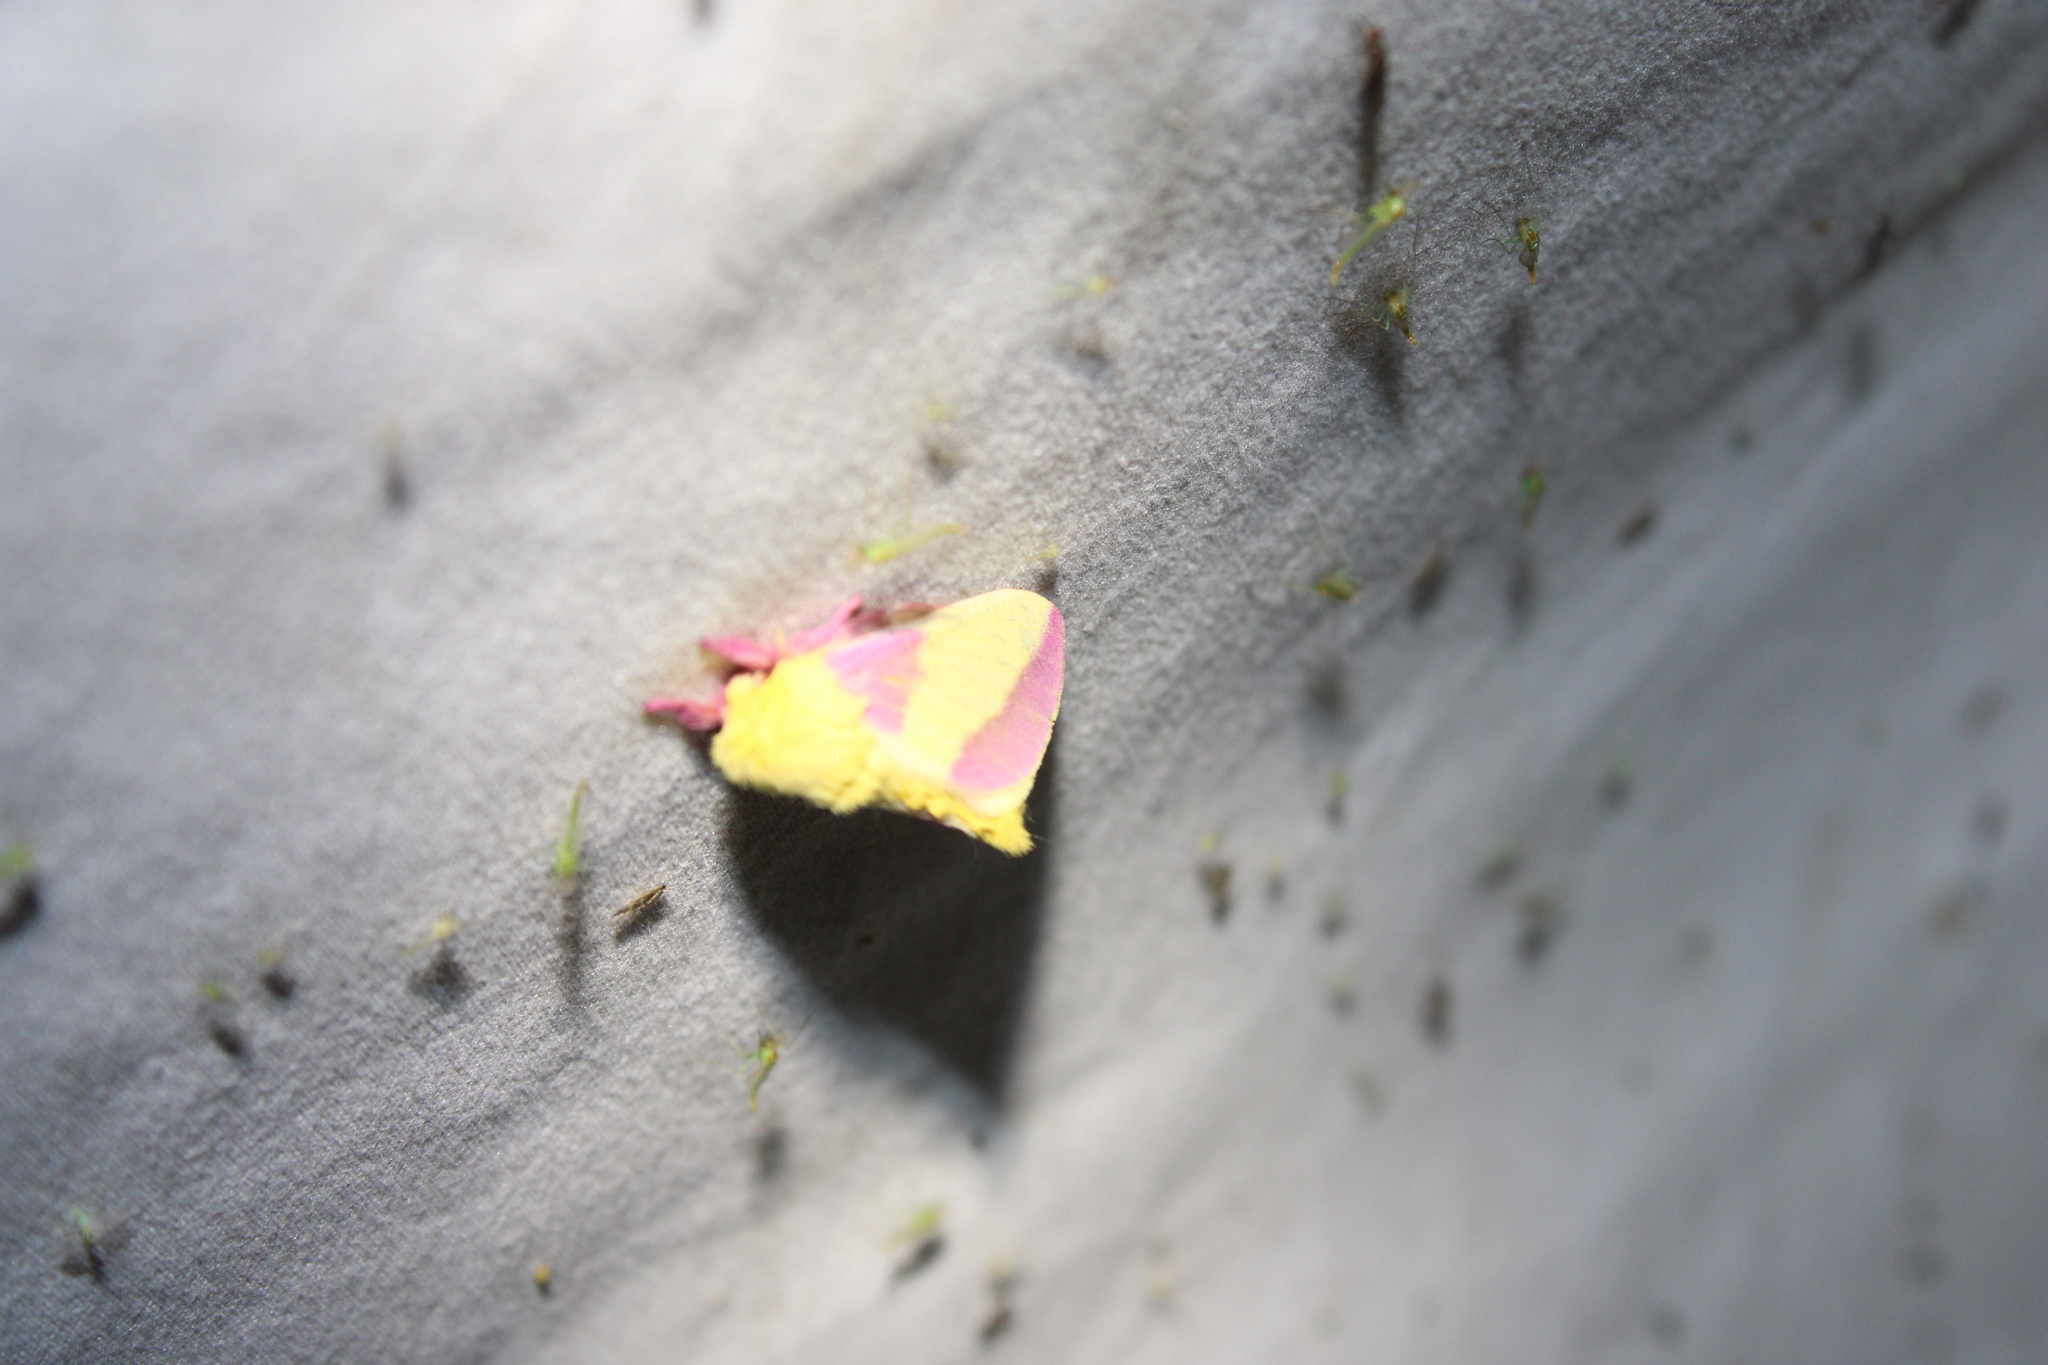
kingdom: Animalia
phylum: Arthropoda
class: Insecta
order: Lepidoptera
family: Saturniidae
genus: Dryocampa
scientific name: Dryocampa rubicunda
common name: Rosy maple moth
